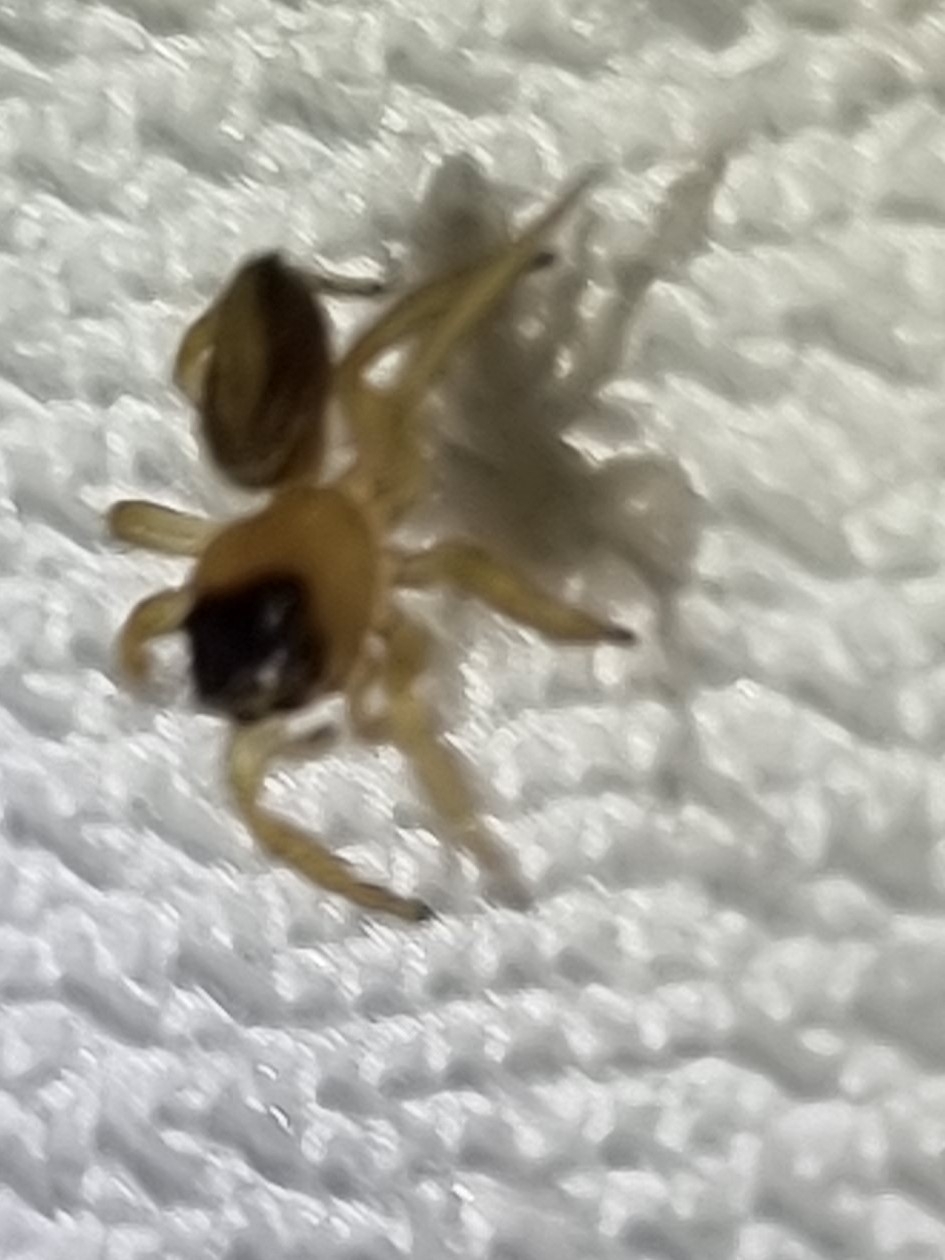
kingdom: Animalia
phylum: Arthropoda
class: Arachnida
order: Araneae
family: Salticidae
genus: Maratus
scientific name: Maratus scutulatus
